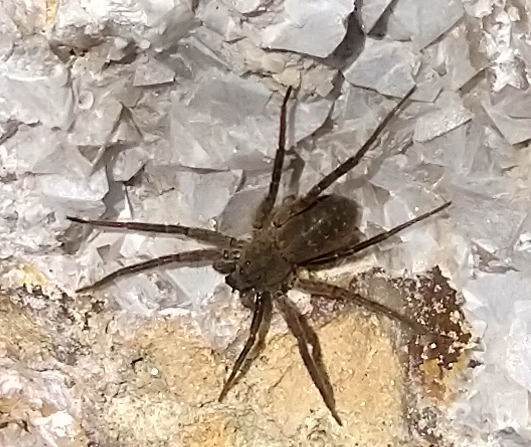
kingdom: Animalia
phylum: Arthropoda
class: Arachnida
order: Araneae
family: Lycosidae
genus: Pardosa
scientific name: Pardosa
